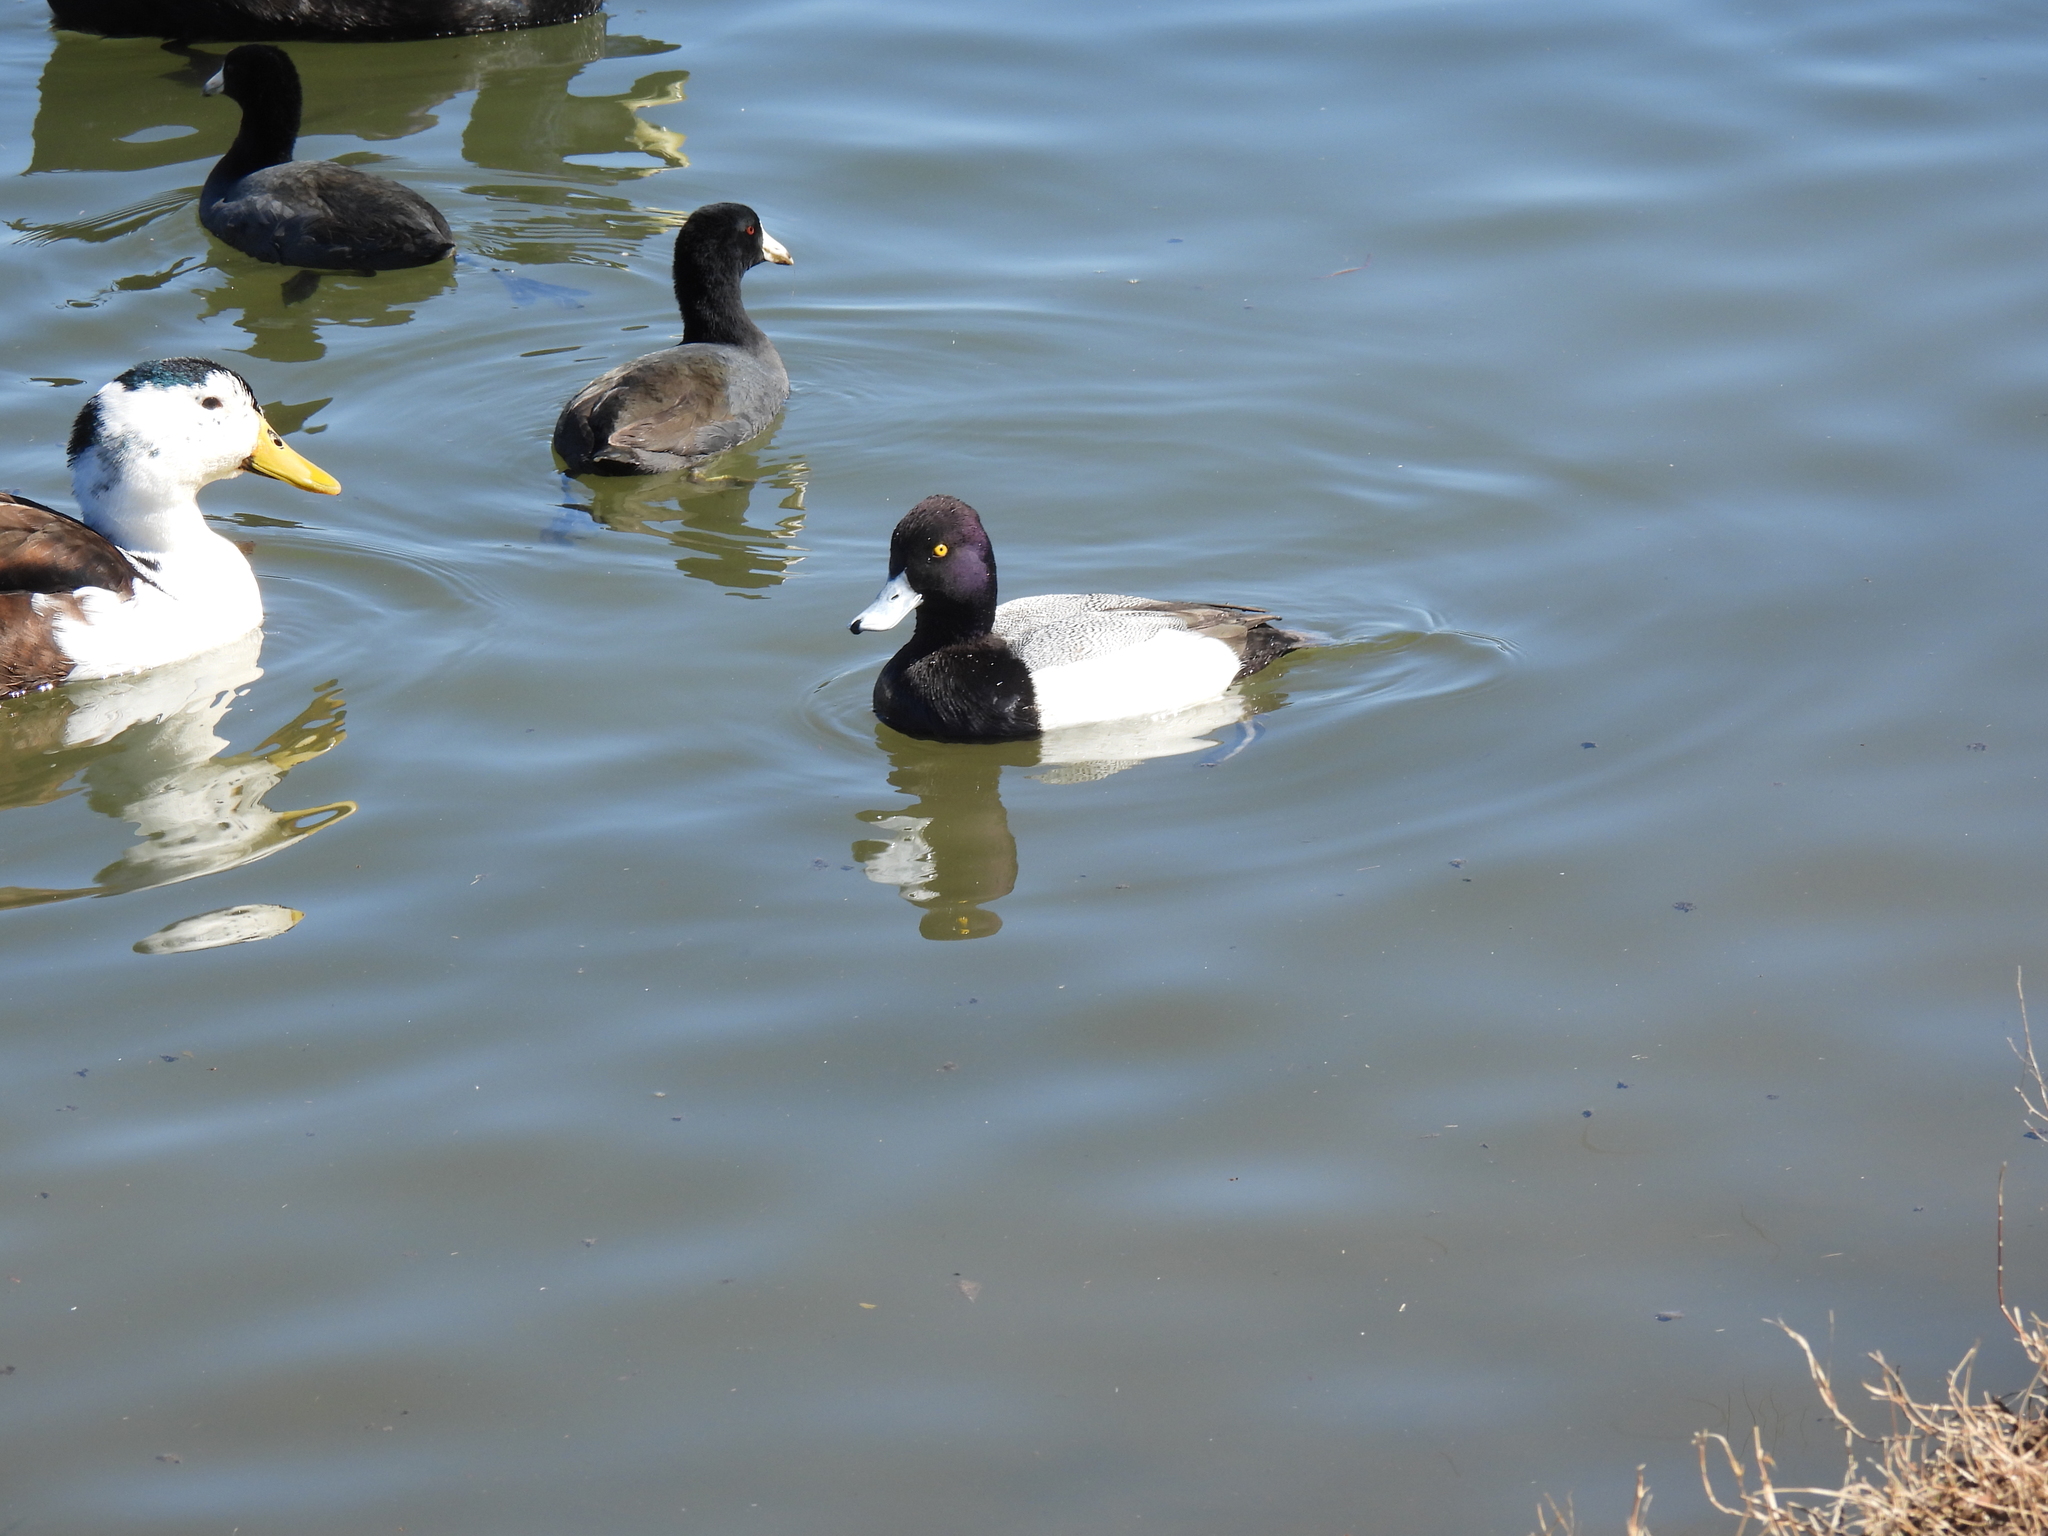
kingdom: Animalia
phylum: Chordata
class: Aves
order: Anseriformes
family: Anatidae
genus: Aythya
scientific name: Aythya affinis
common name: Lesser scaup
